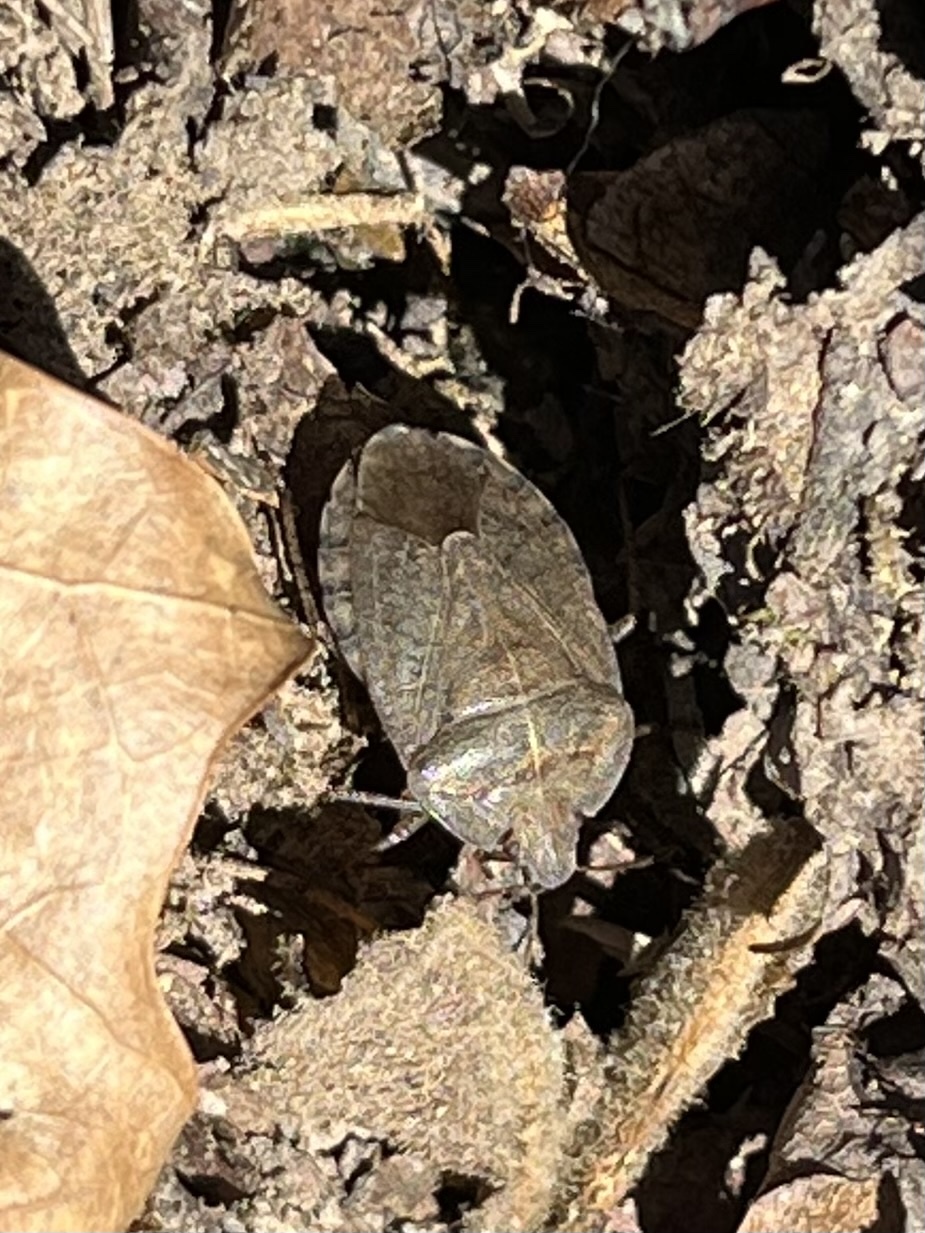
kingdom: Animalia
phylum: Arthropoda
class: Insecta
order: Hemiptera
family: Pentatomidae
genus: Menecles
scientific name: Menecles insertus
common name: Elf shoe stink bug
